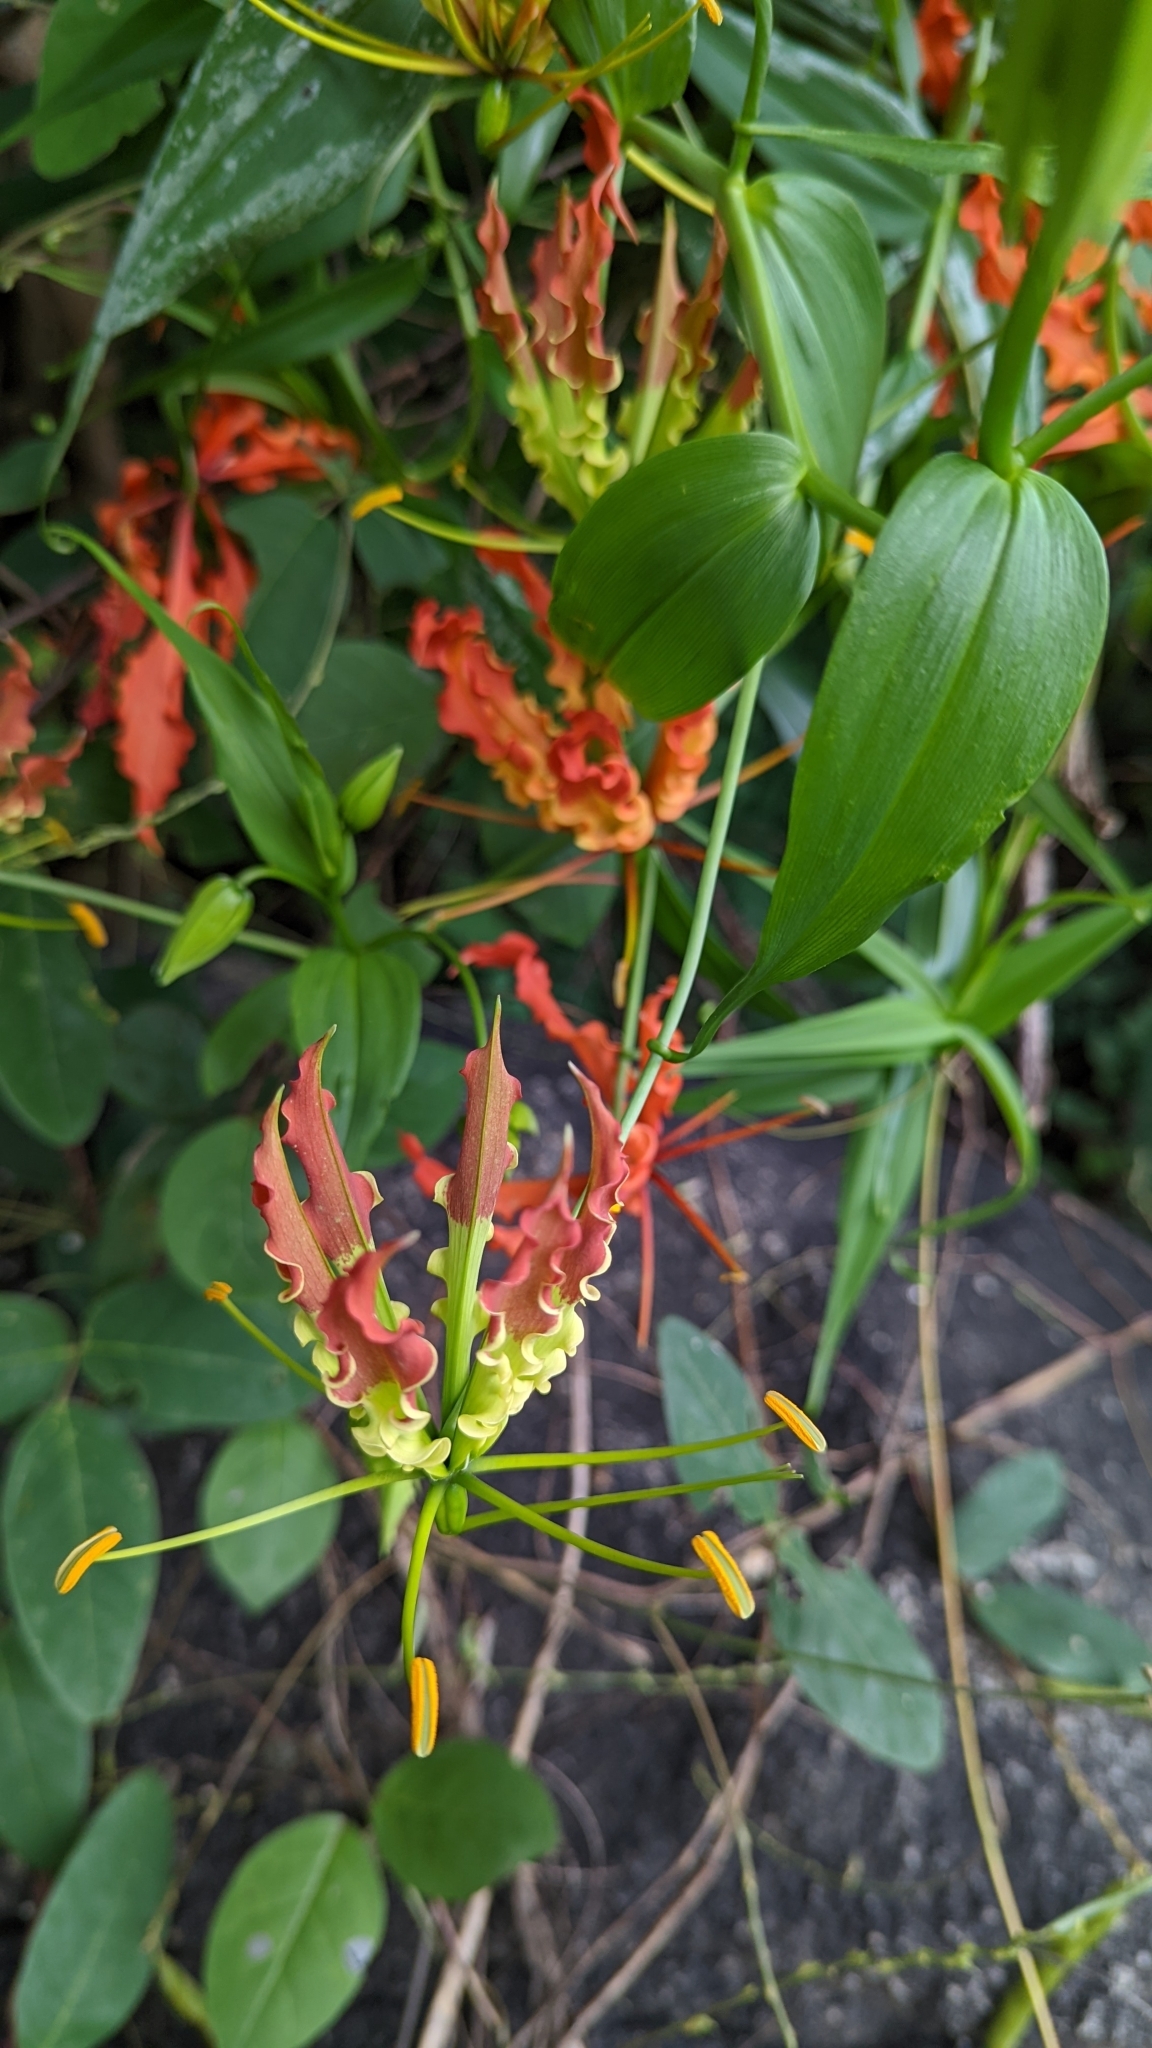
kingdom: Plantae
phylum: Tracheophyta
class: Liliopsida
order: Liliales
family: Colchicaceae
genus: Gloriosa
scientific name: Gloriosa superba
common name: Flame lily
